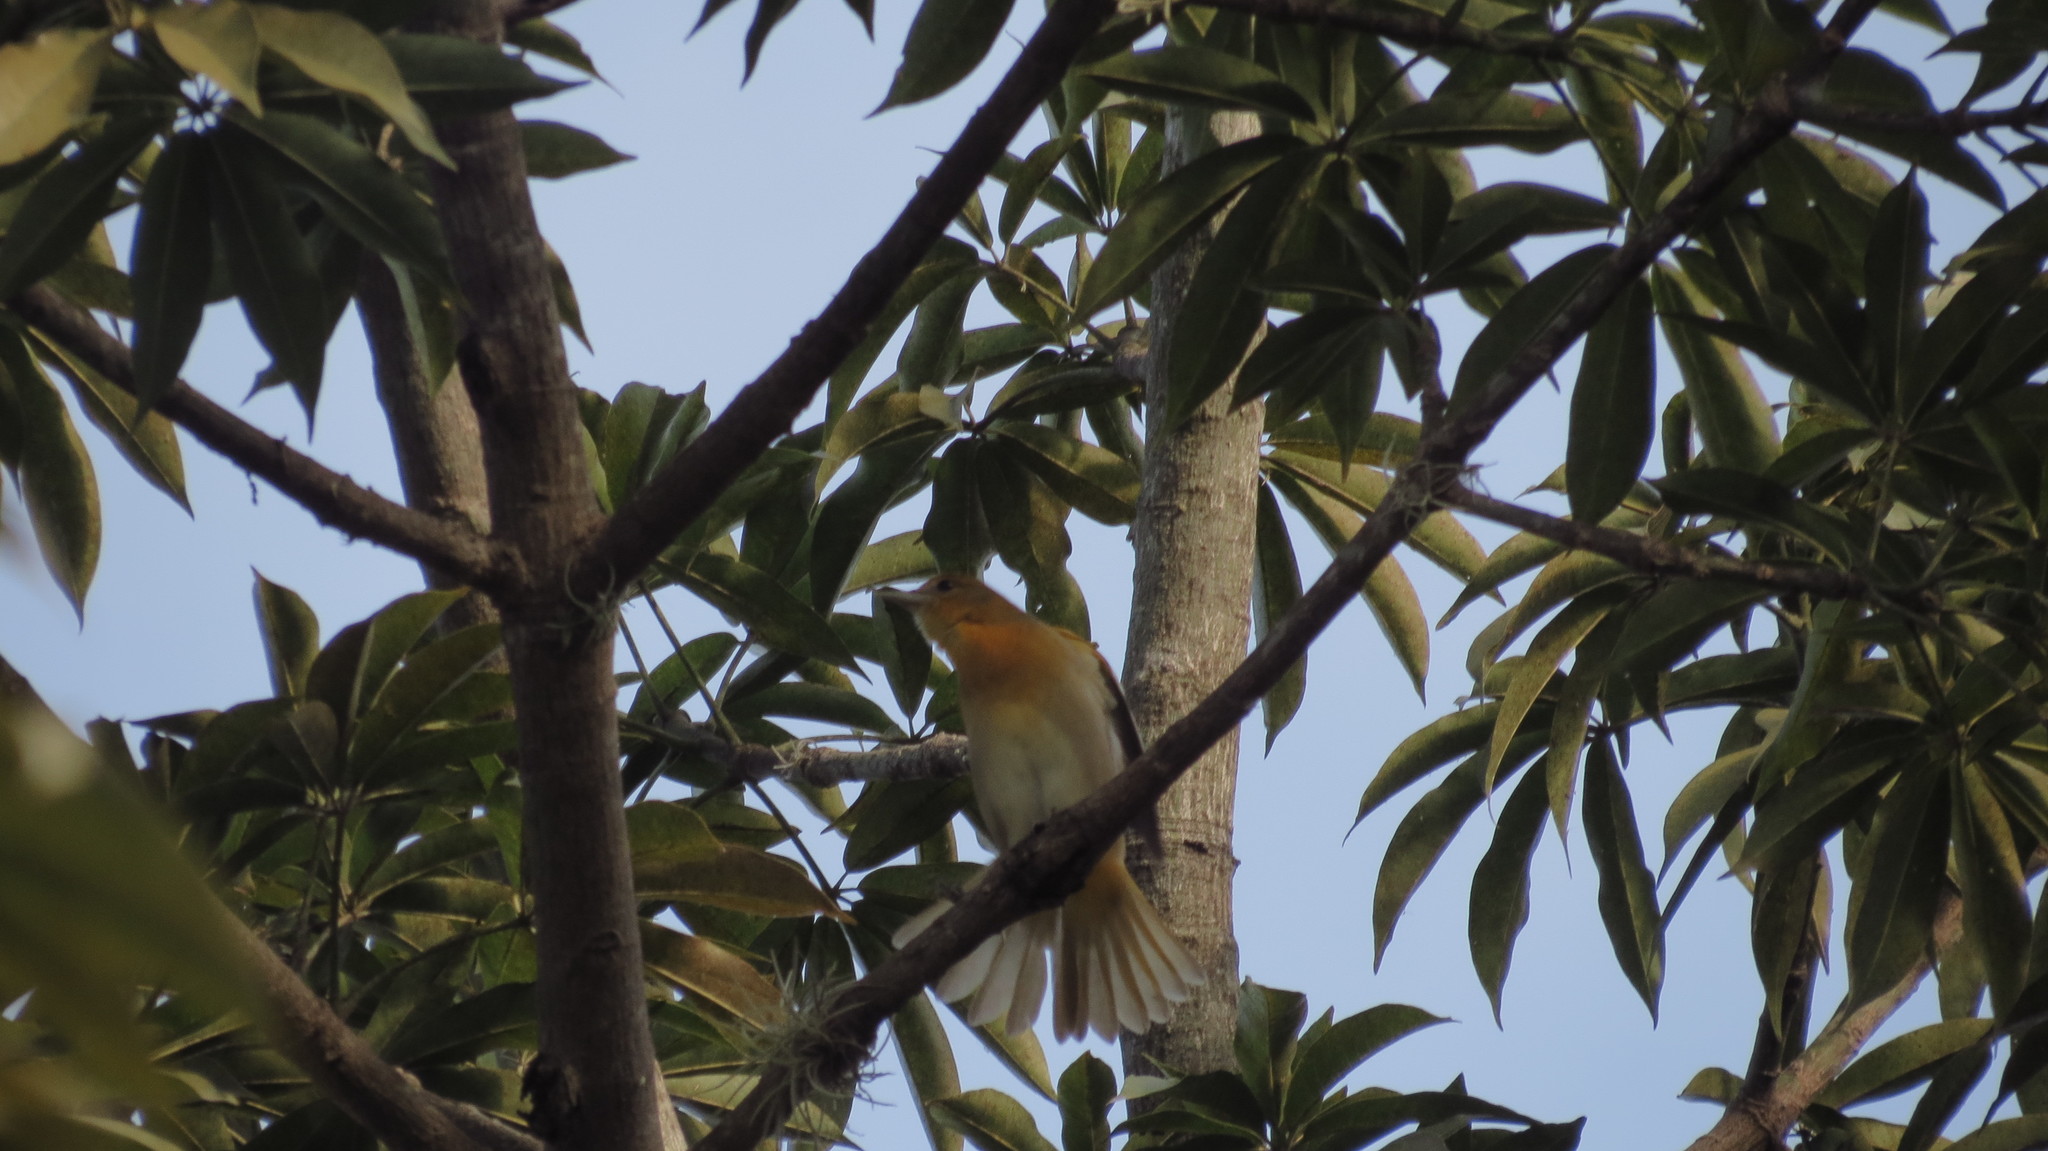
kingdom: Animalia
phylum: Chordata
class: Aves
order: Passeriformes
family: Icteridae
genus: Icterus
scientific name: Icterus galbula
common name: Baltimore oriole
